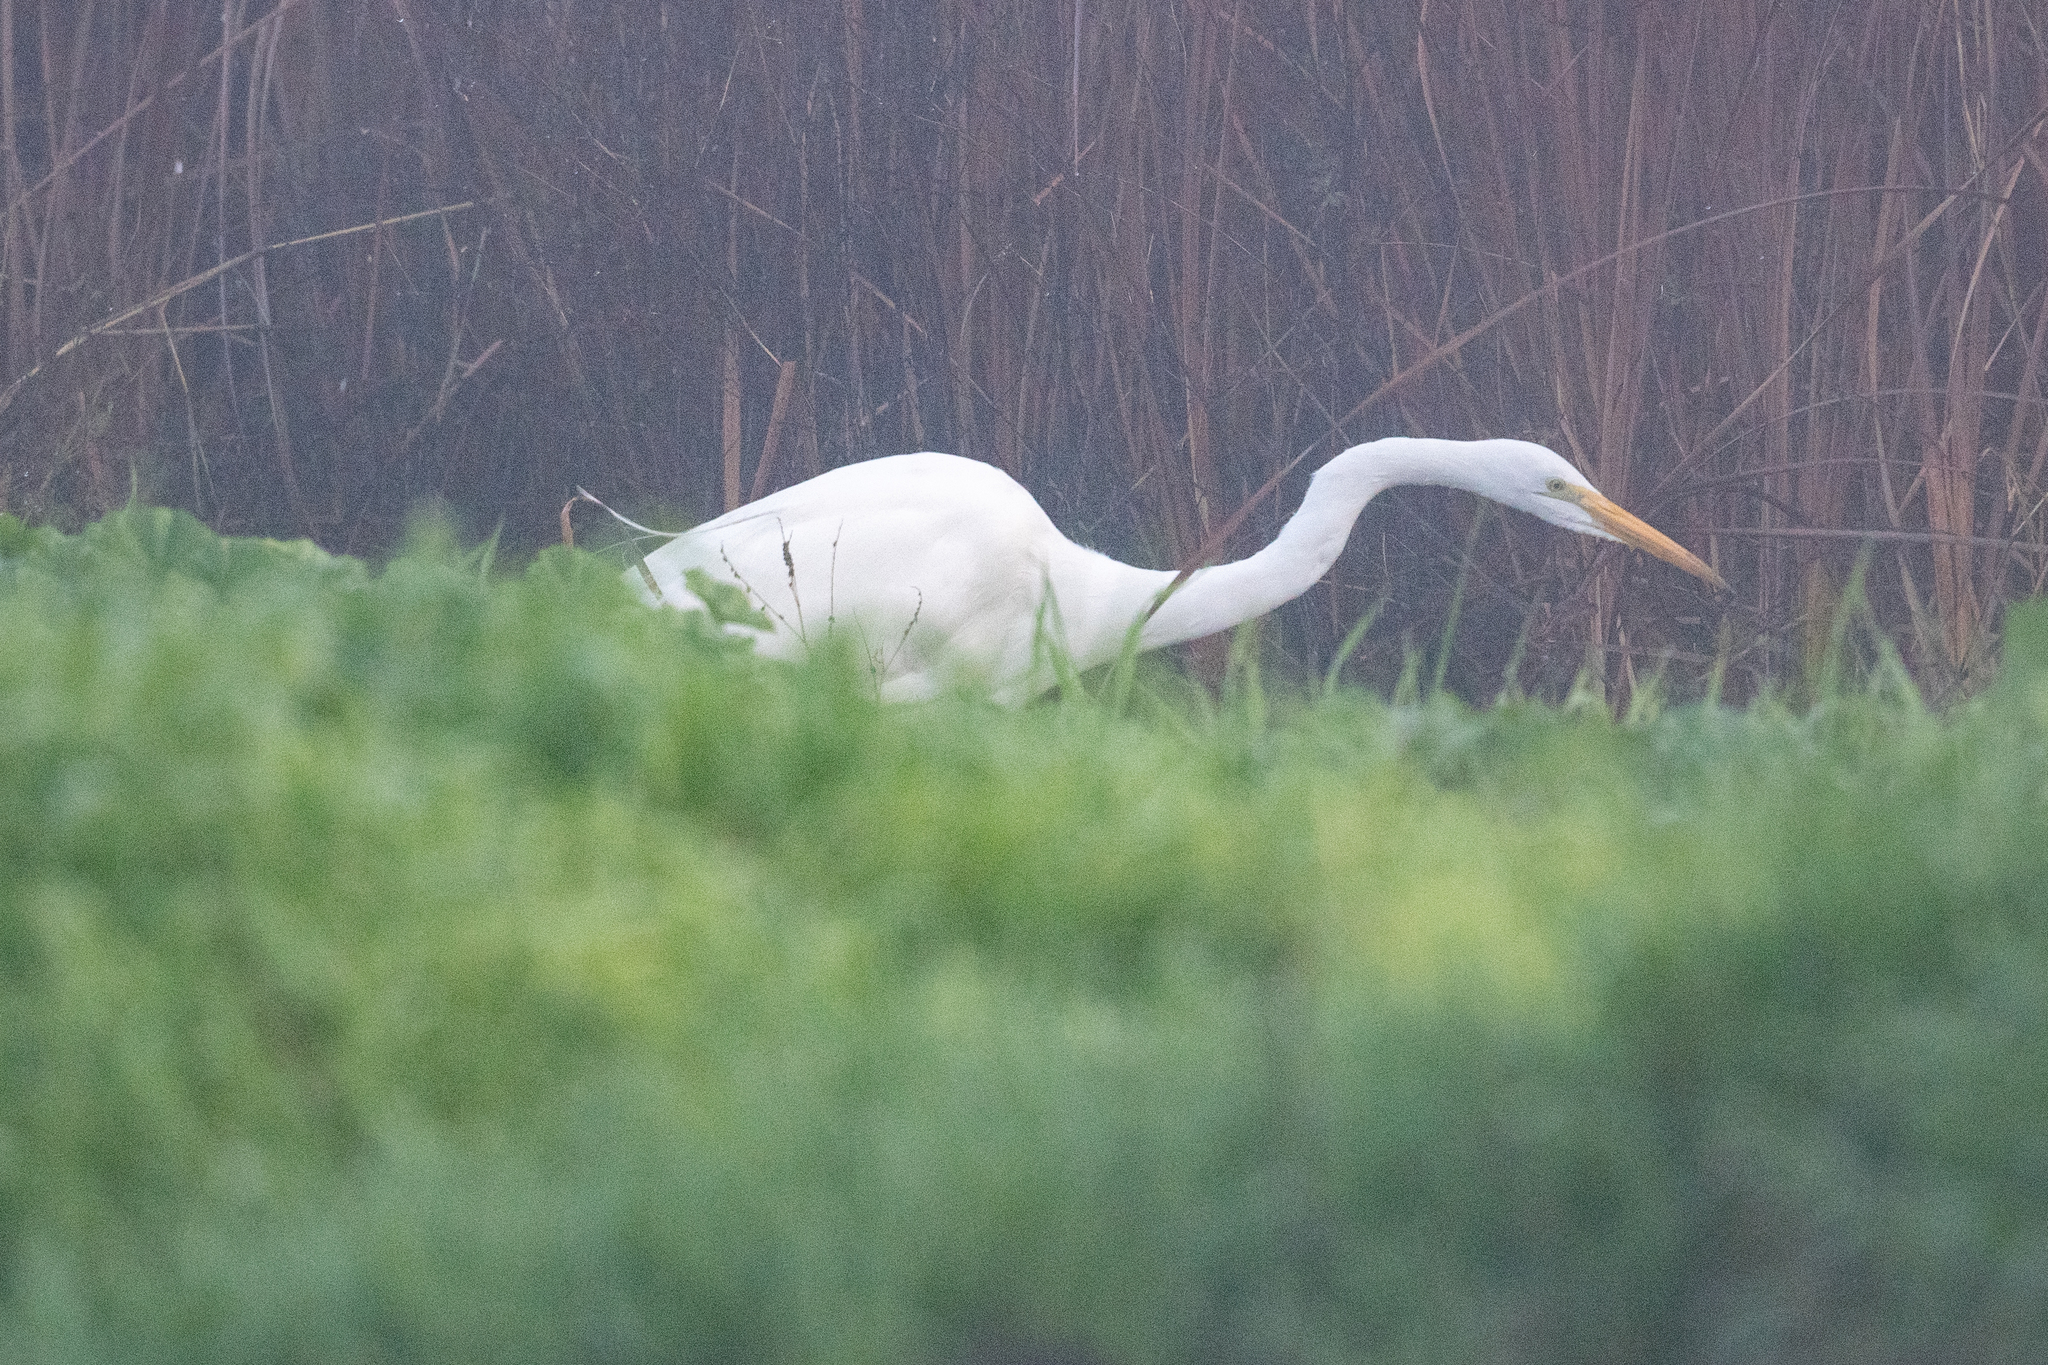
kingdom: Animalia
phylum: Chordata
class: Aves
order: Pelecaniformes
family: Ardeidae
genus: Ardea
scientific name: Ardea alba
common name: Great egret
